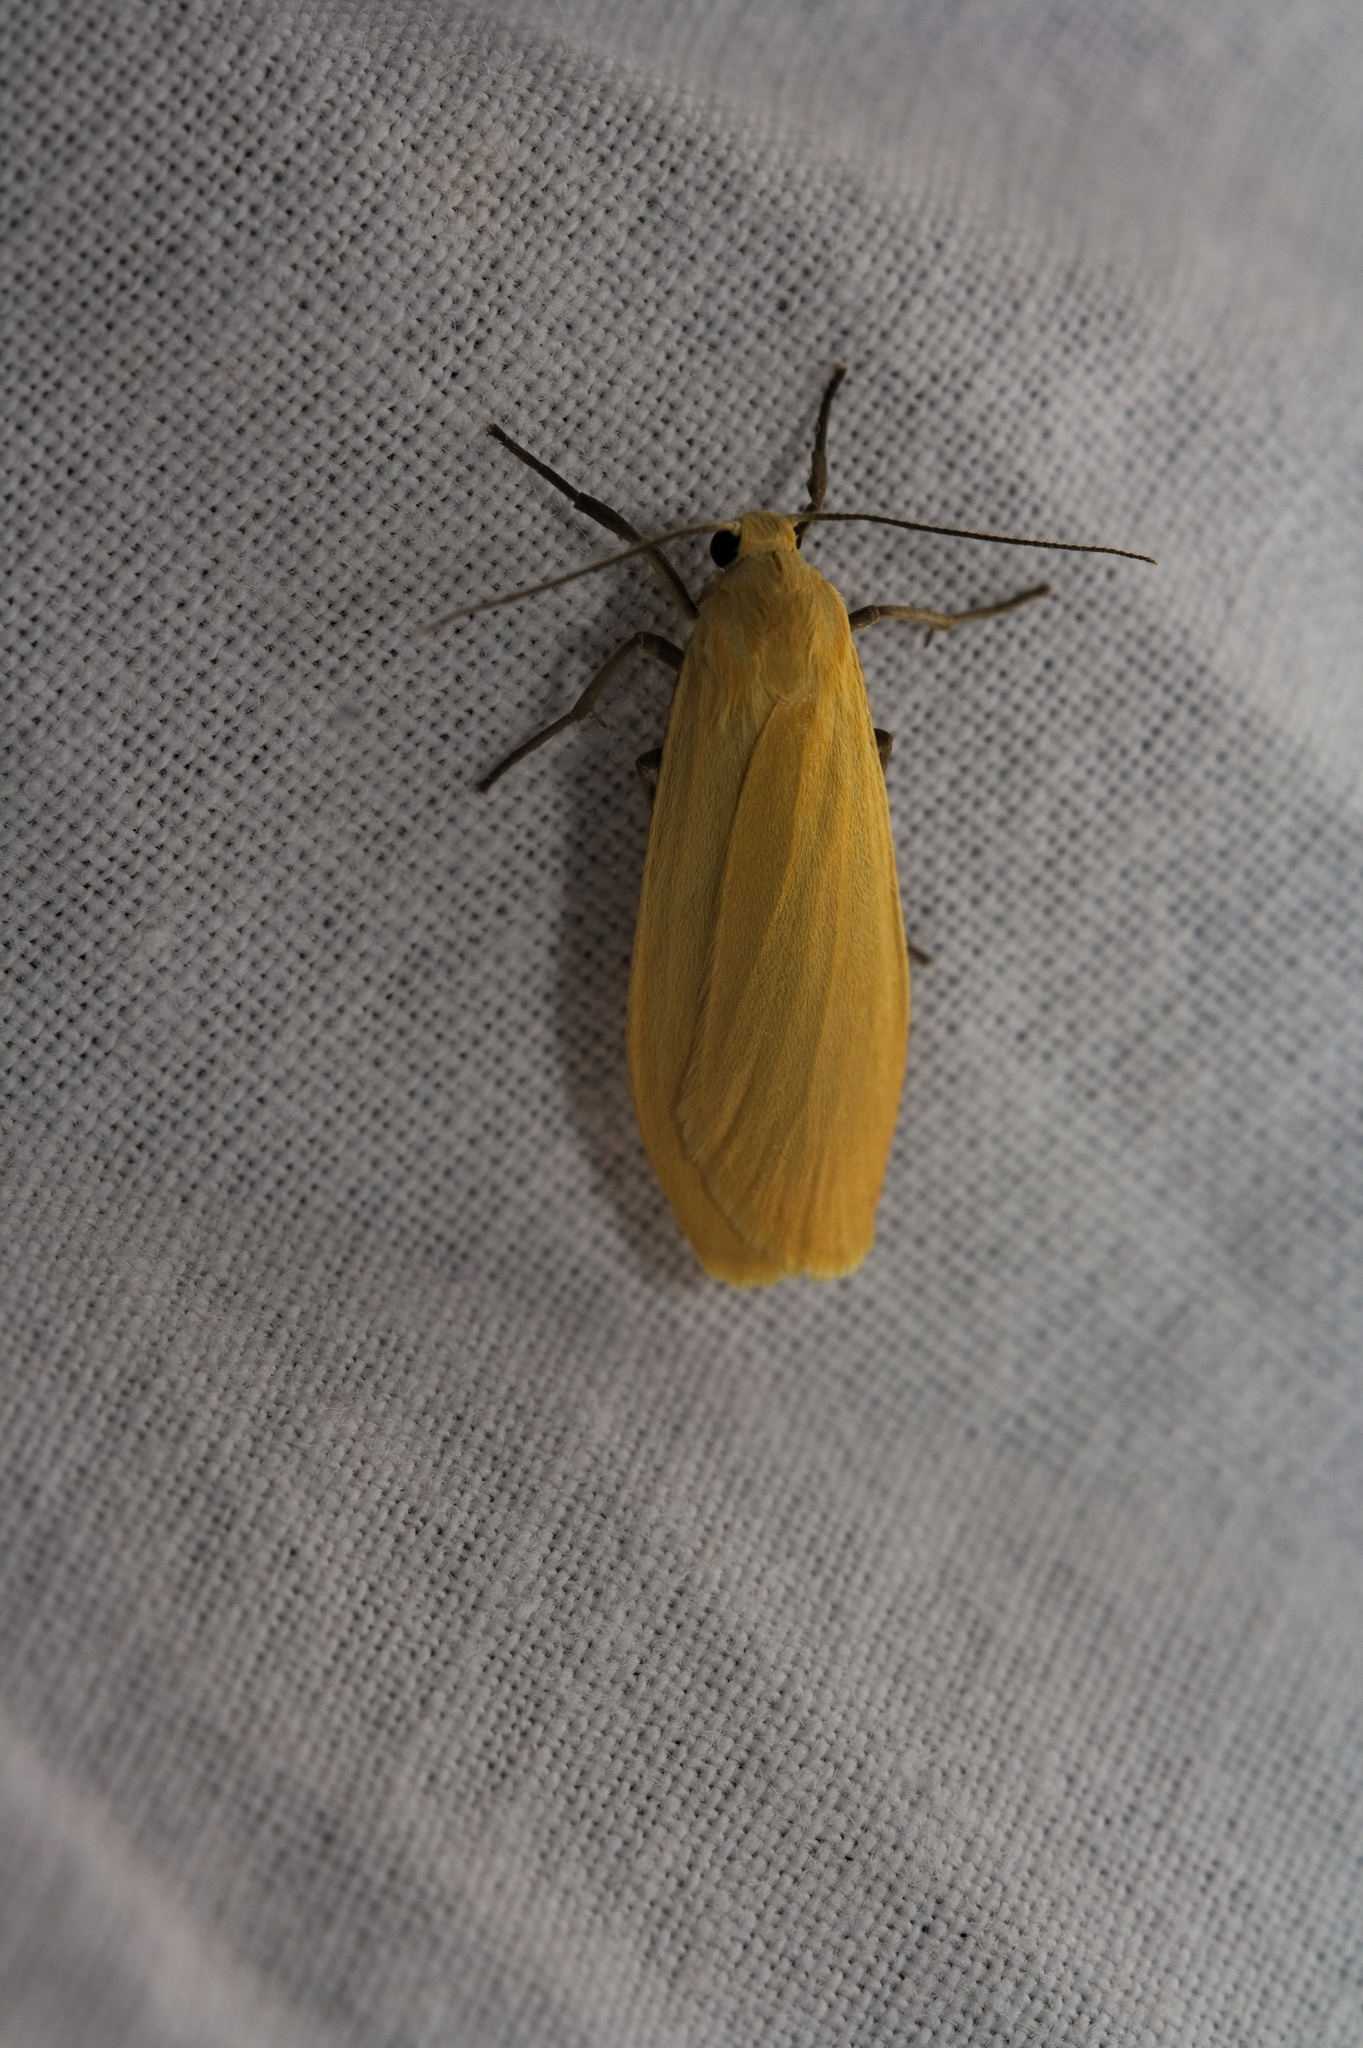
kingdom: Animalia
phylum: Arthropoda
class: Insecta
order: Lepidoptera
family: Erebidae
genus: Wittia
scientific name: Wittia sororcula
